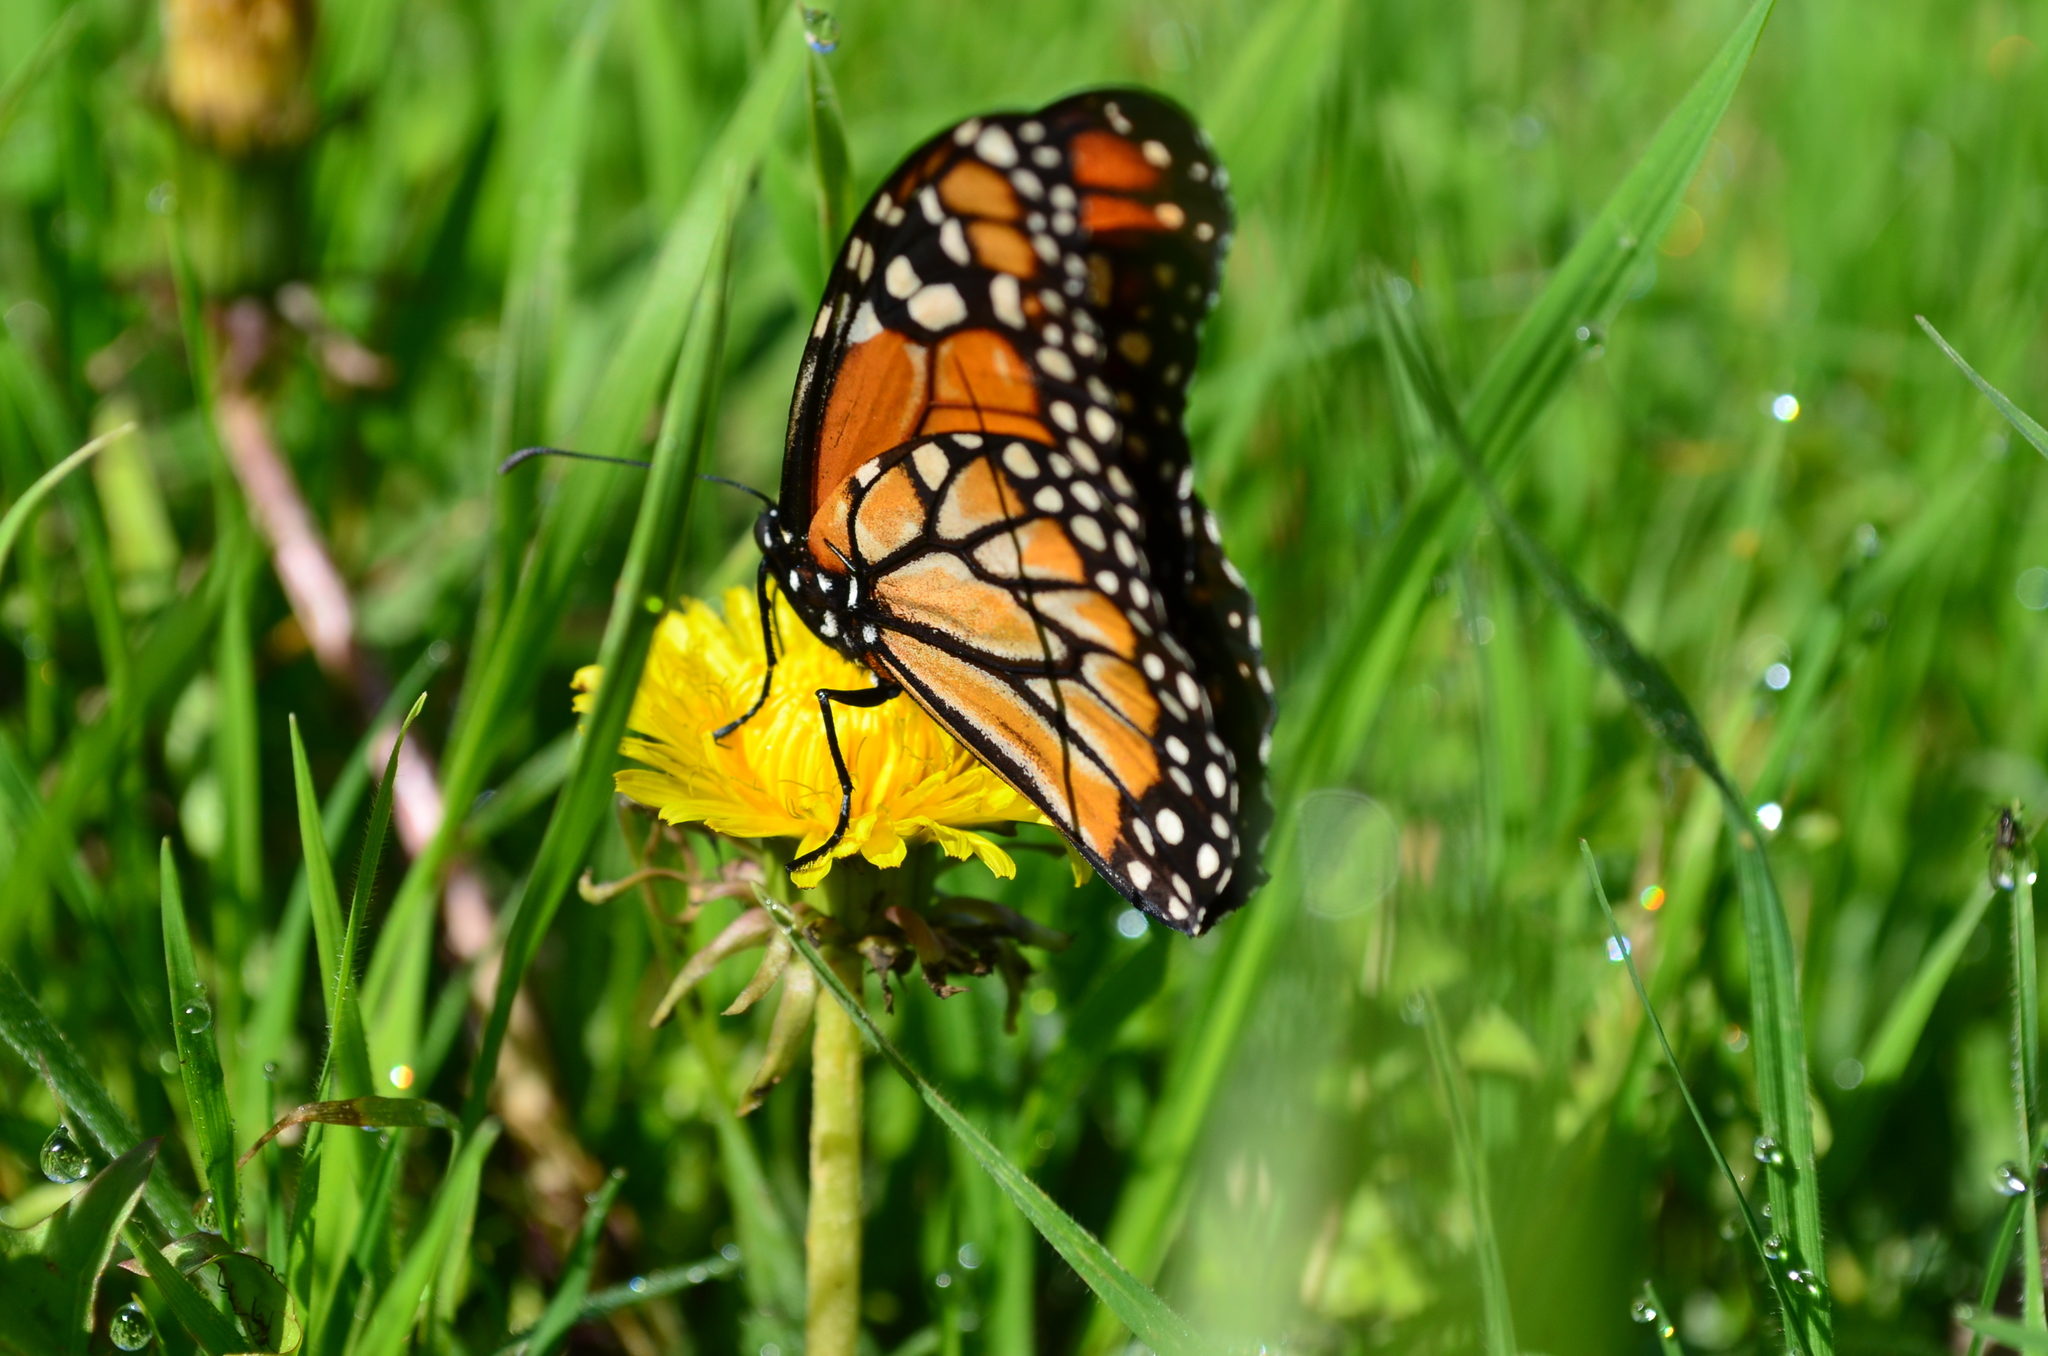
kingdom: Animalia
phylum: Arthropoda
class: Insecta
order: Lepidoptera
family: Nymphalidae
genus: Danaus
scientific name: Danaus erippus
